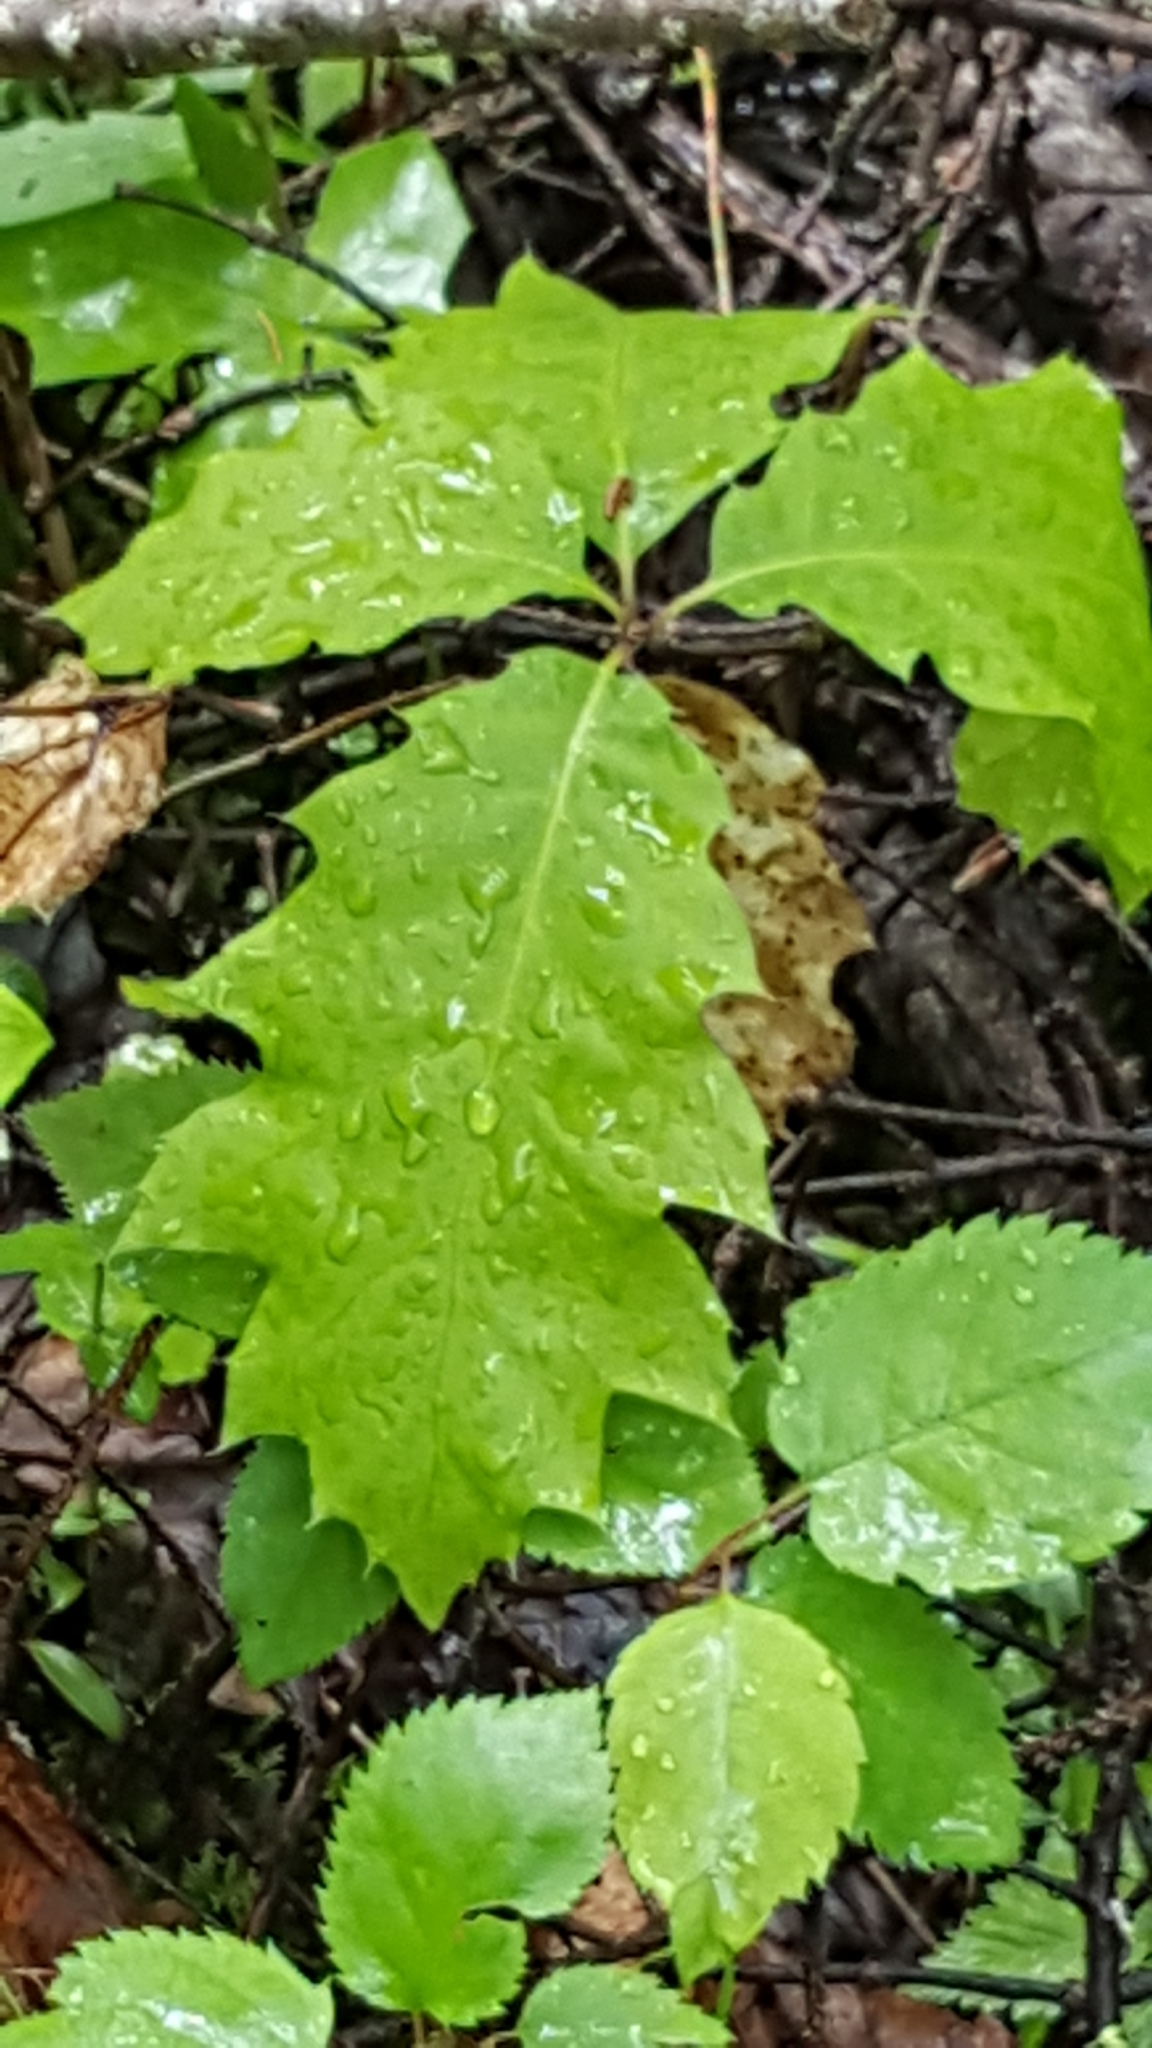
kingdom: Plantae
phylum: Tracheophyta
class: Magnoliopsida
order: Fagales
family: Fagaceae
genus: Quercus
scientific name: Quercus rubra
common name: Red oak
